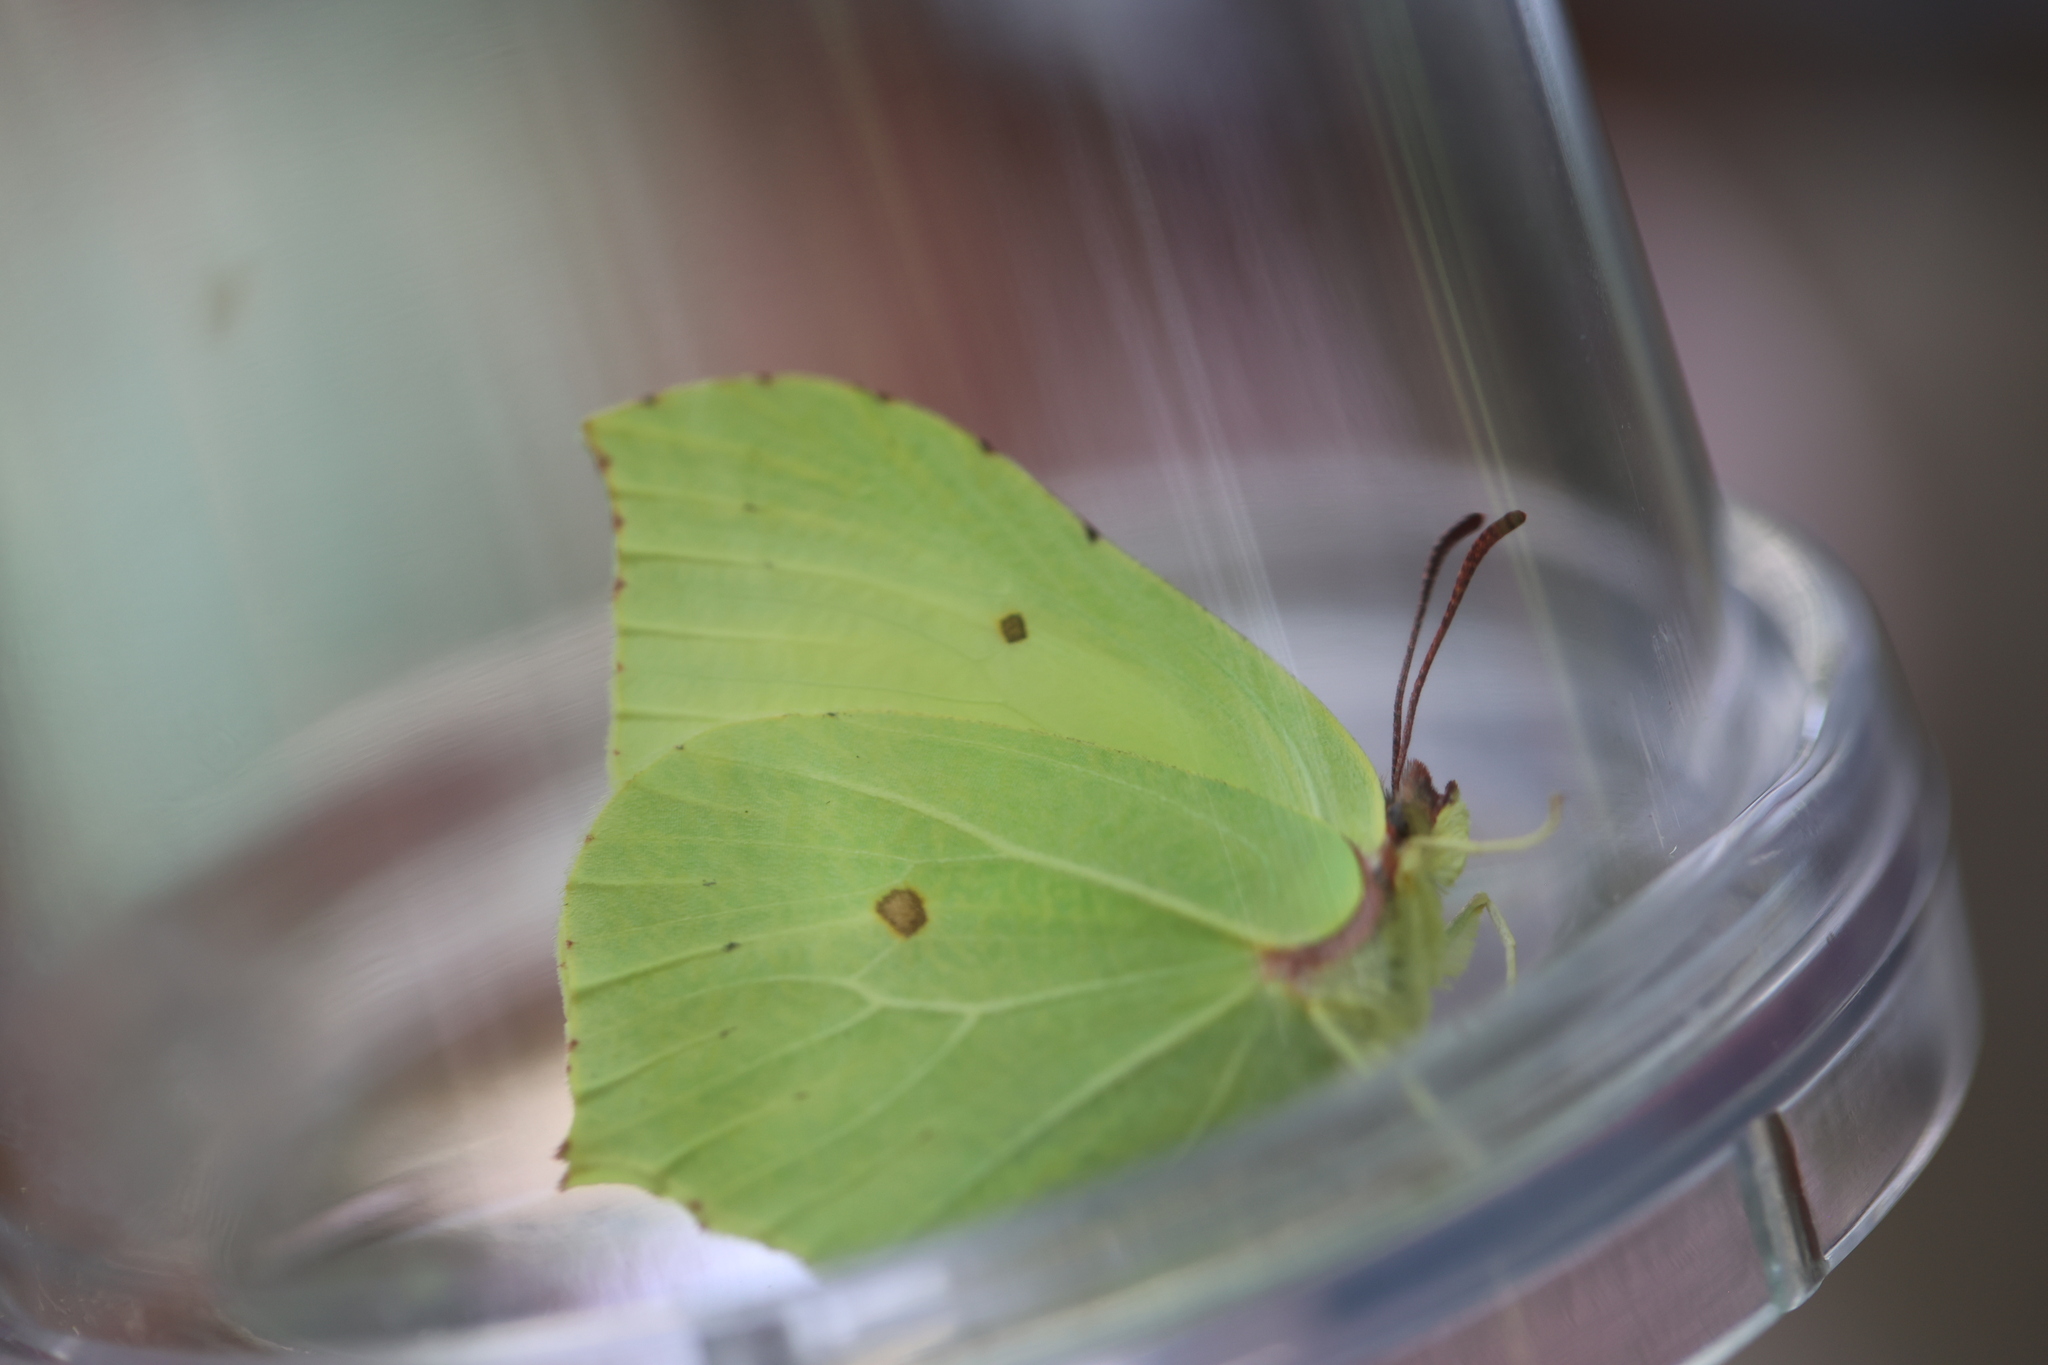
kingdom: Animalia
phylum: Arthropoda
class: Insecta
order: Lepidoptera
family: Pieridae
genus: Gonepteryx
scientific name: Gonepteryx rhamni
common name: Brimstone
